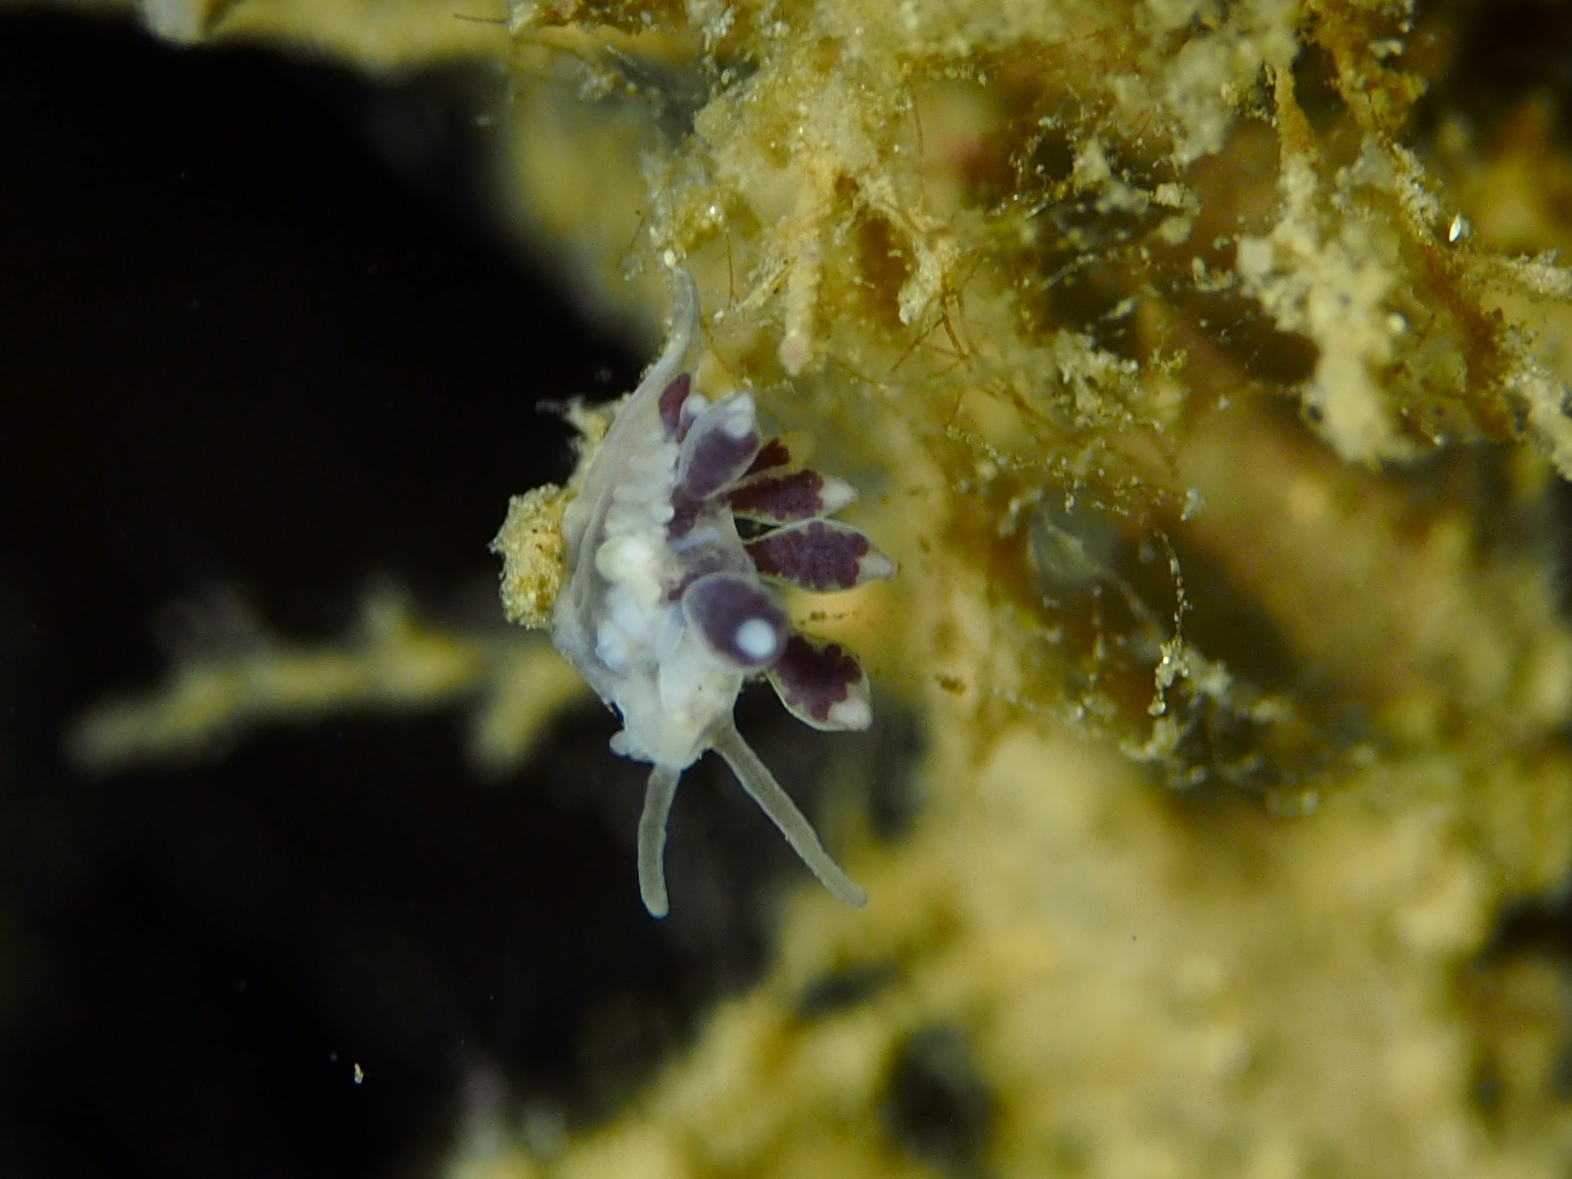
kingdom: Animalia
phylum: Mollusca
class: Gastropoda
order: Nudibranchia
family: Tergipedidae
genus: Tergipes
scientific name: Tergipes tergipes
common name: Johnston's balloon eolis
